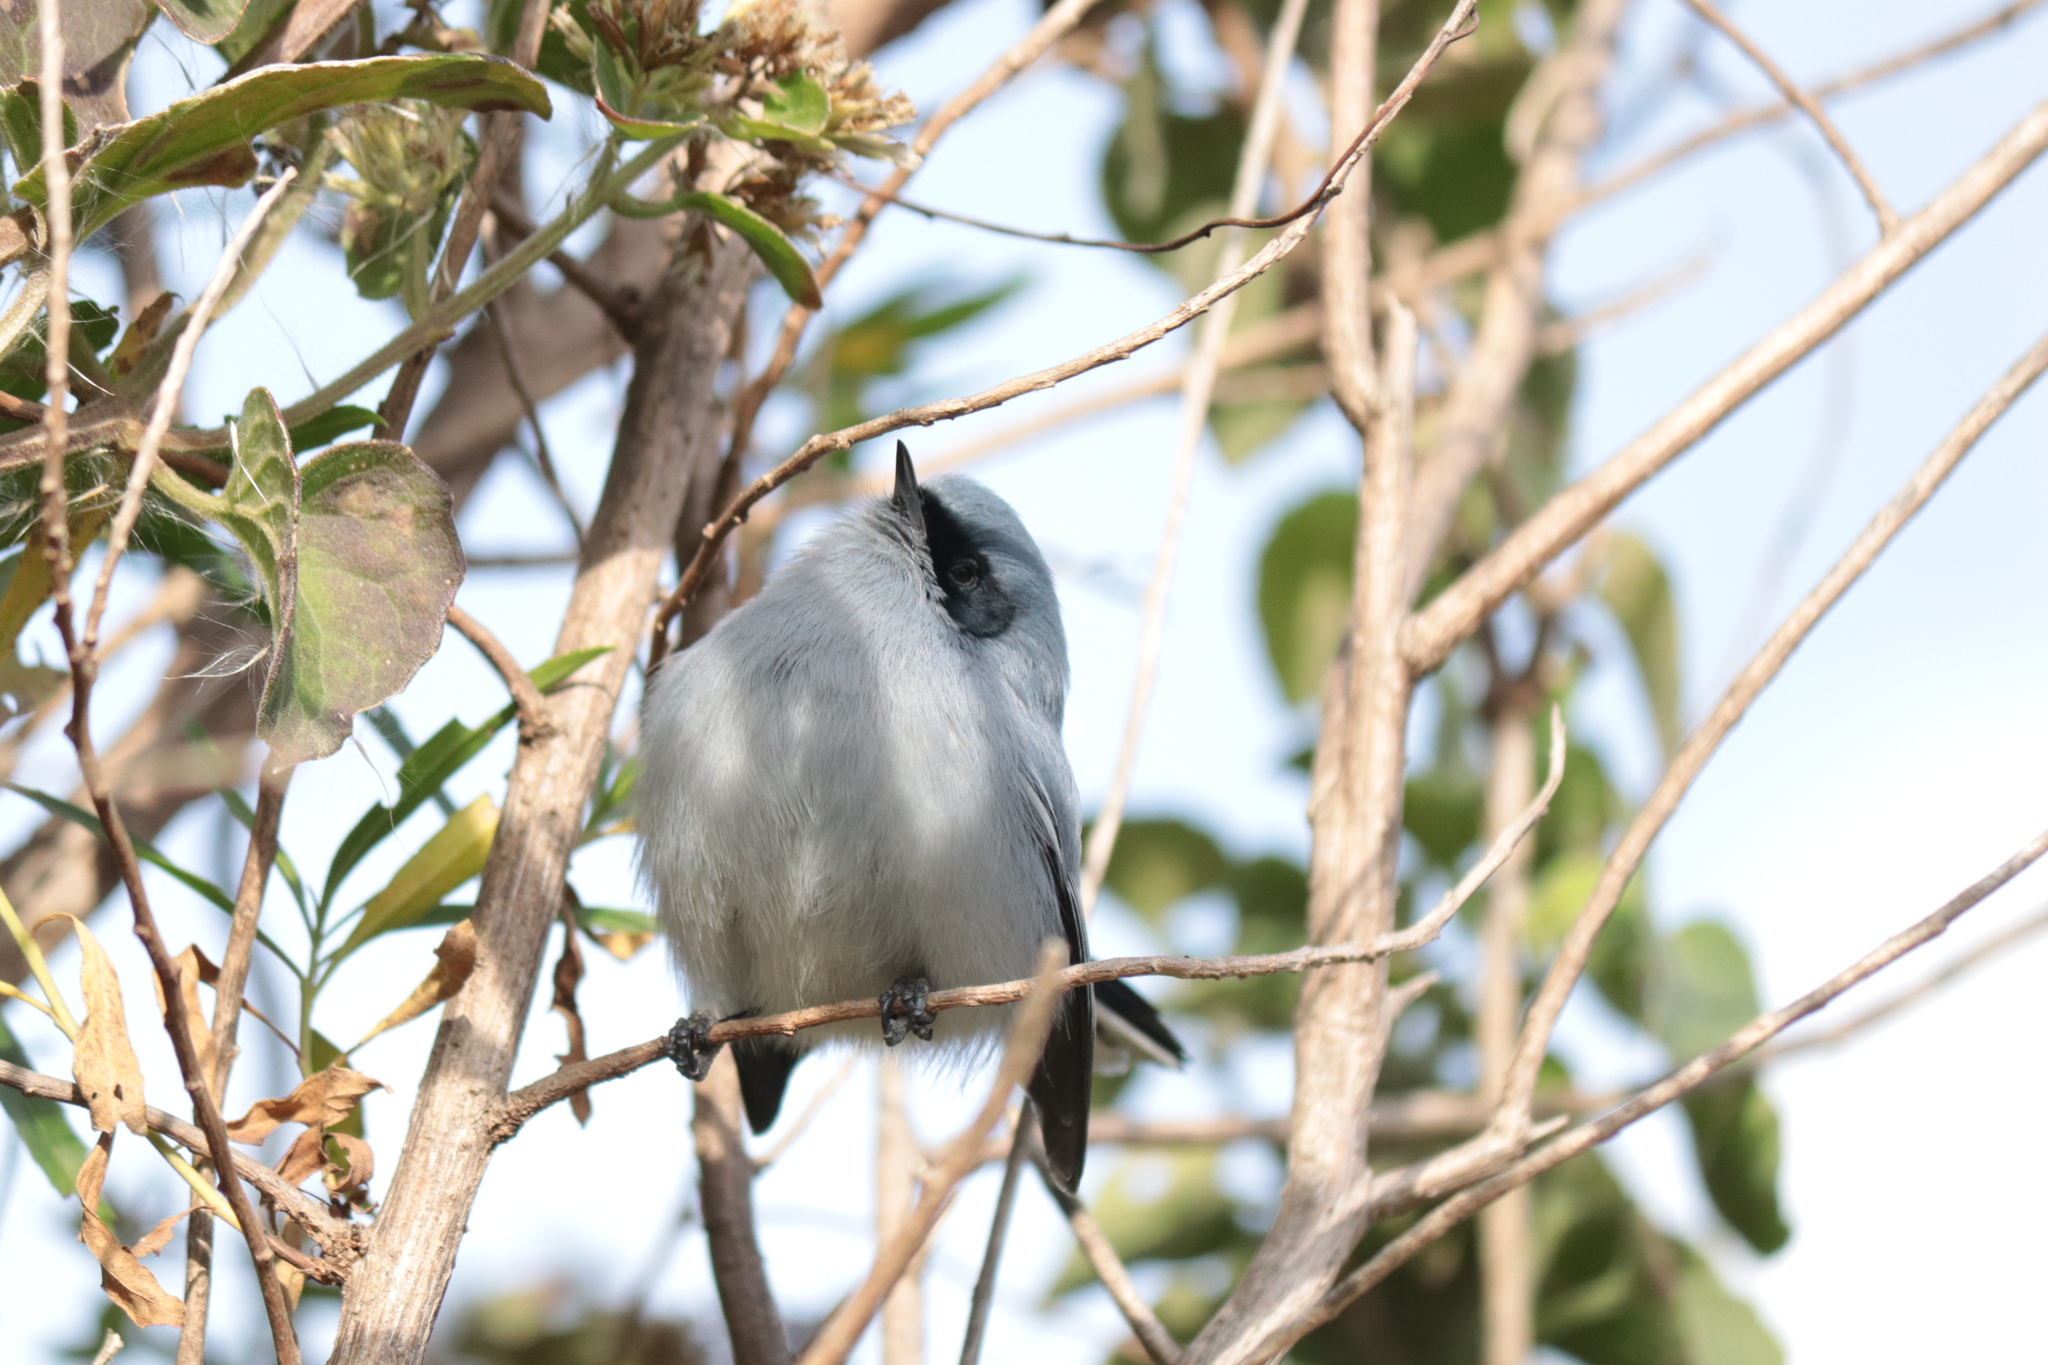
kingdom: Animalia
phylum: Chordata
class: Aves
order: Passeriformes
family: Polioptilidae
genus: Polioptila
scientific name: Polioptila dumicola
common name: Masked gnatcatcher
